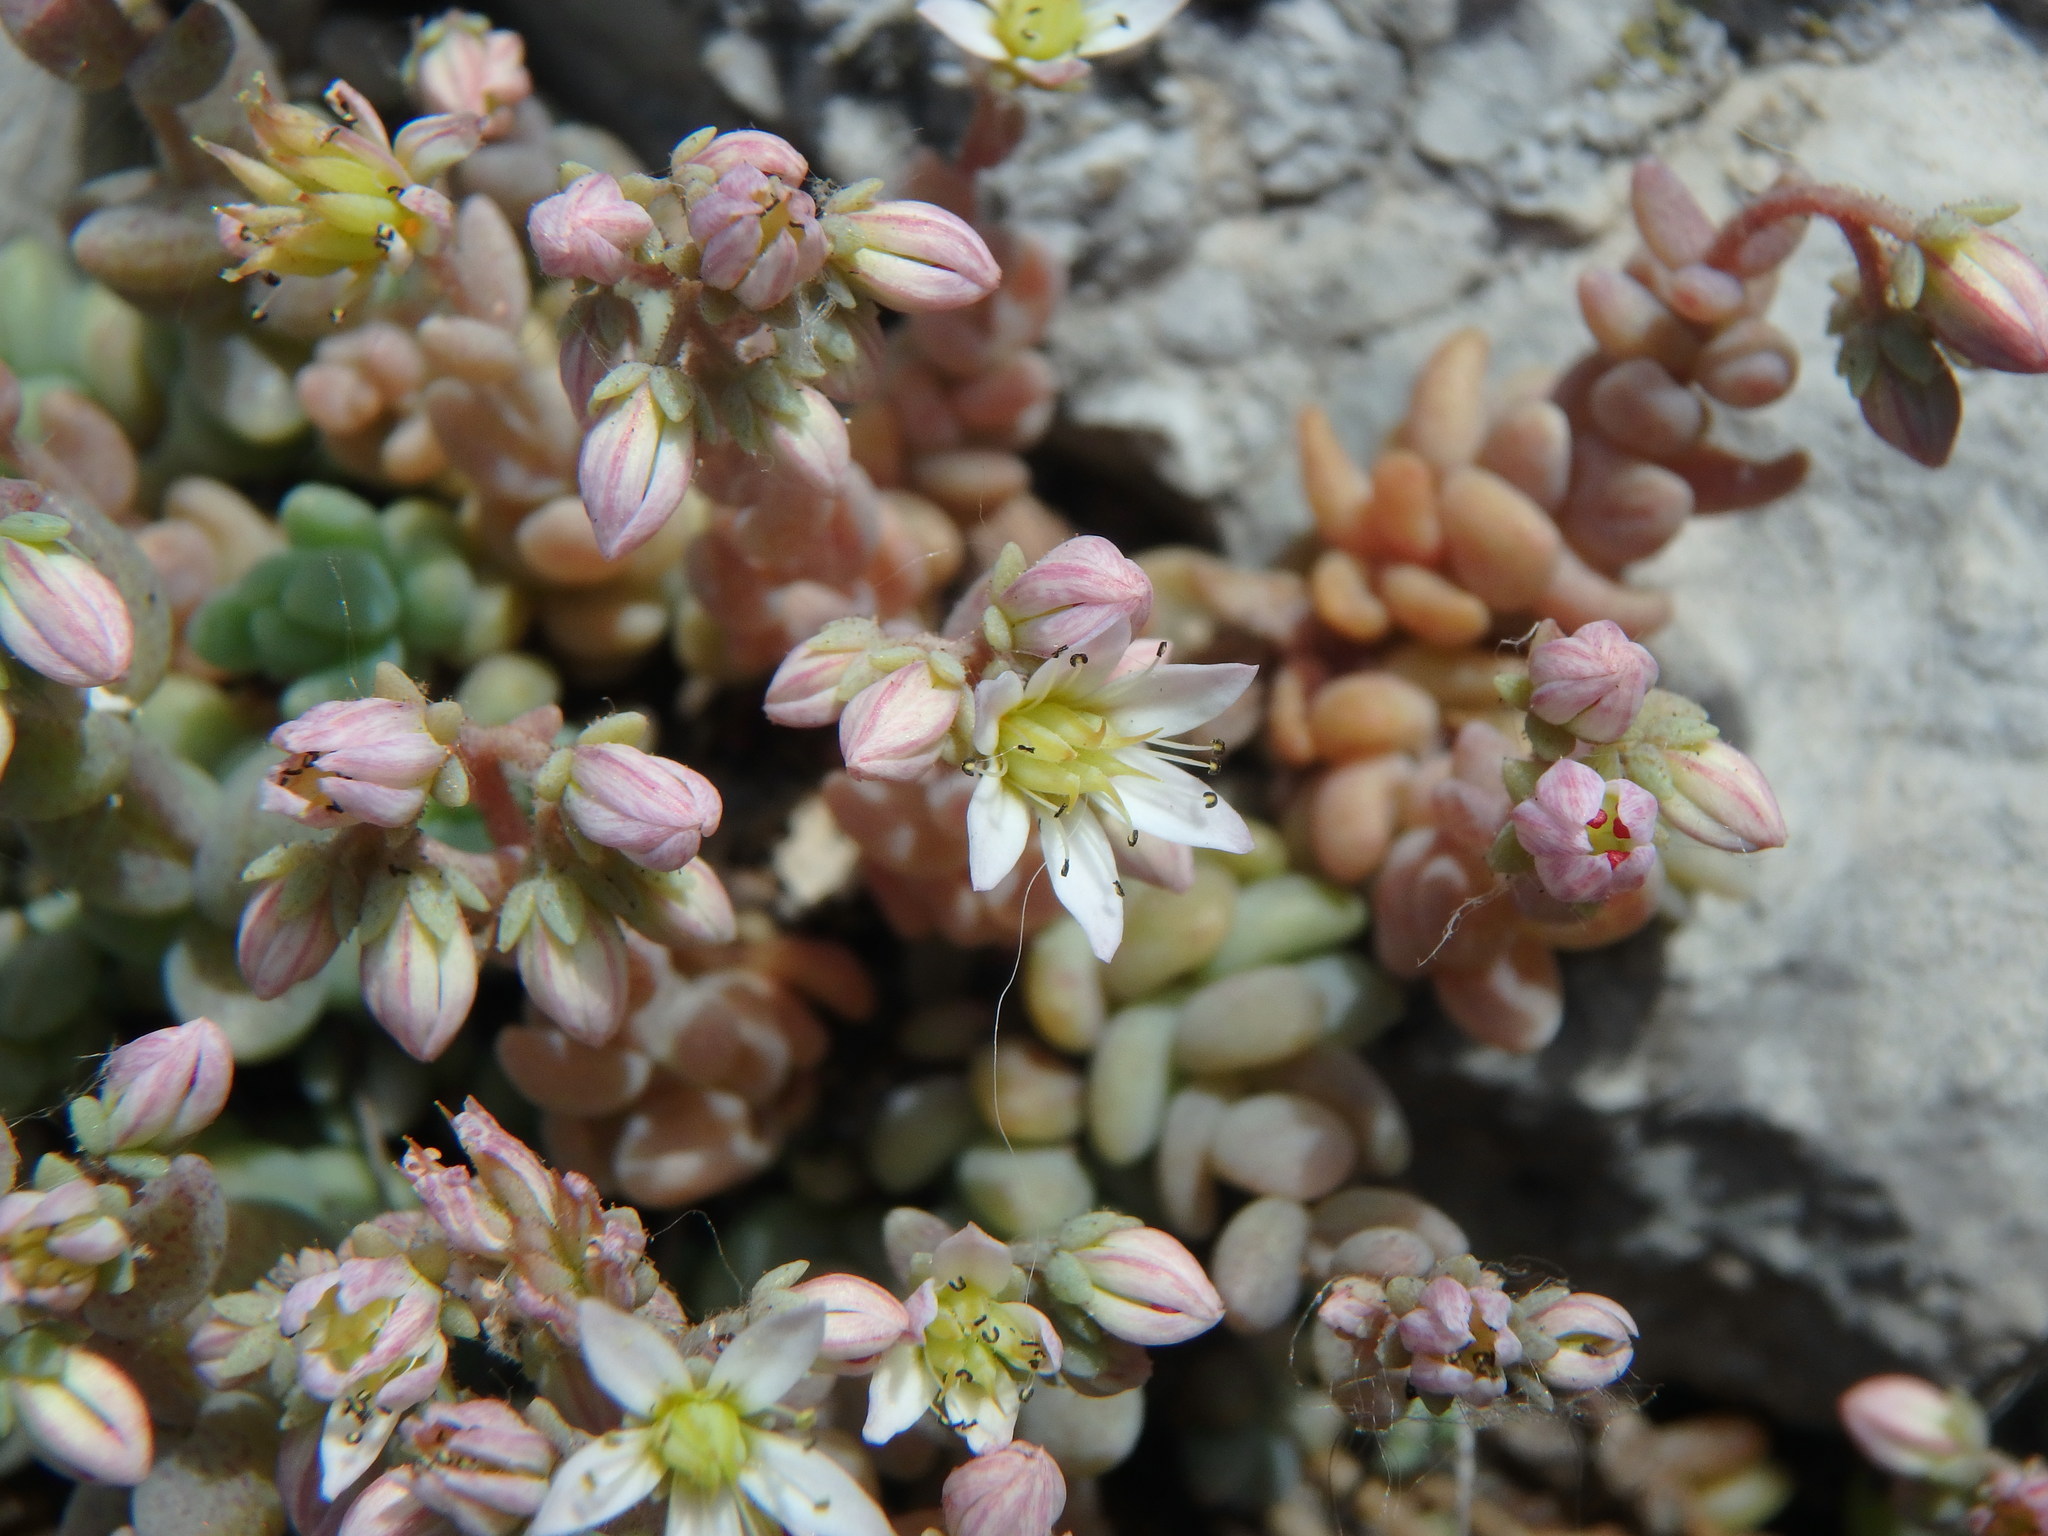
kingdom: Plantae
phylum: Tracheophyta
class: Magnoliopsida
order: Saxifragales
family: Crassulaceae
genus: Sedum
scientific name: Sedum dasyphyllum
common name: Thick-leaf stonecrop
